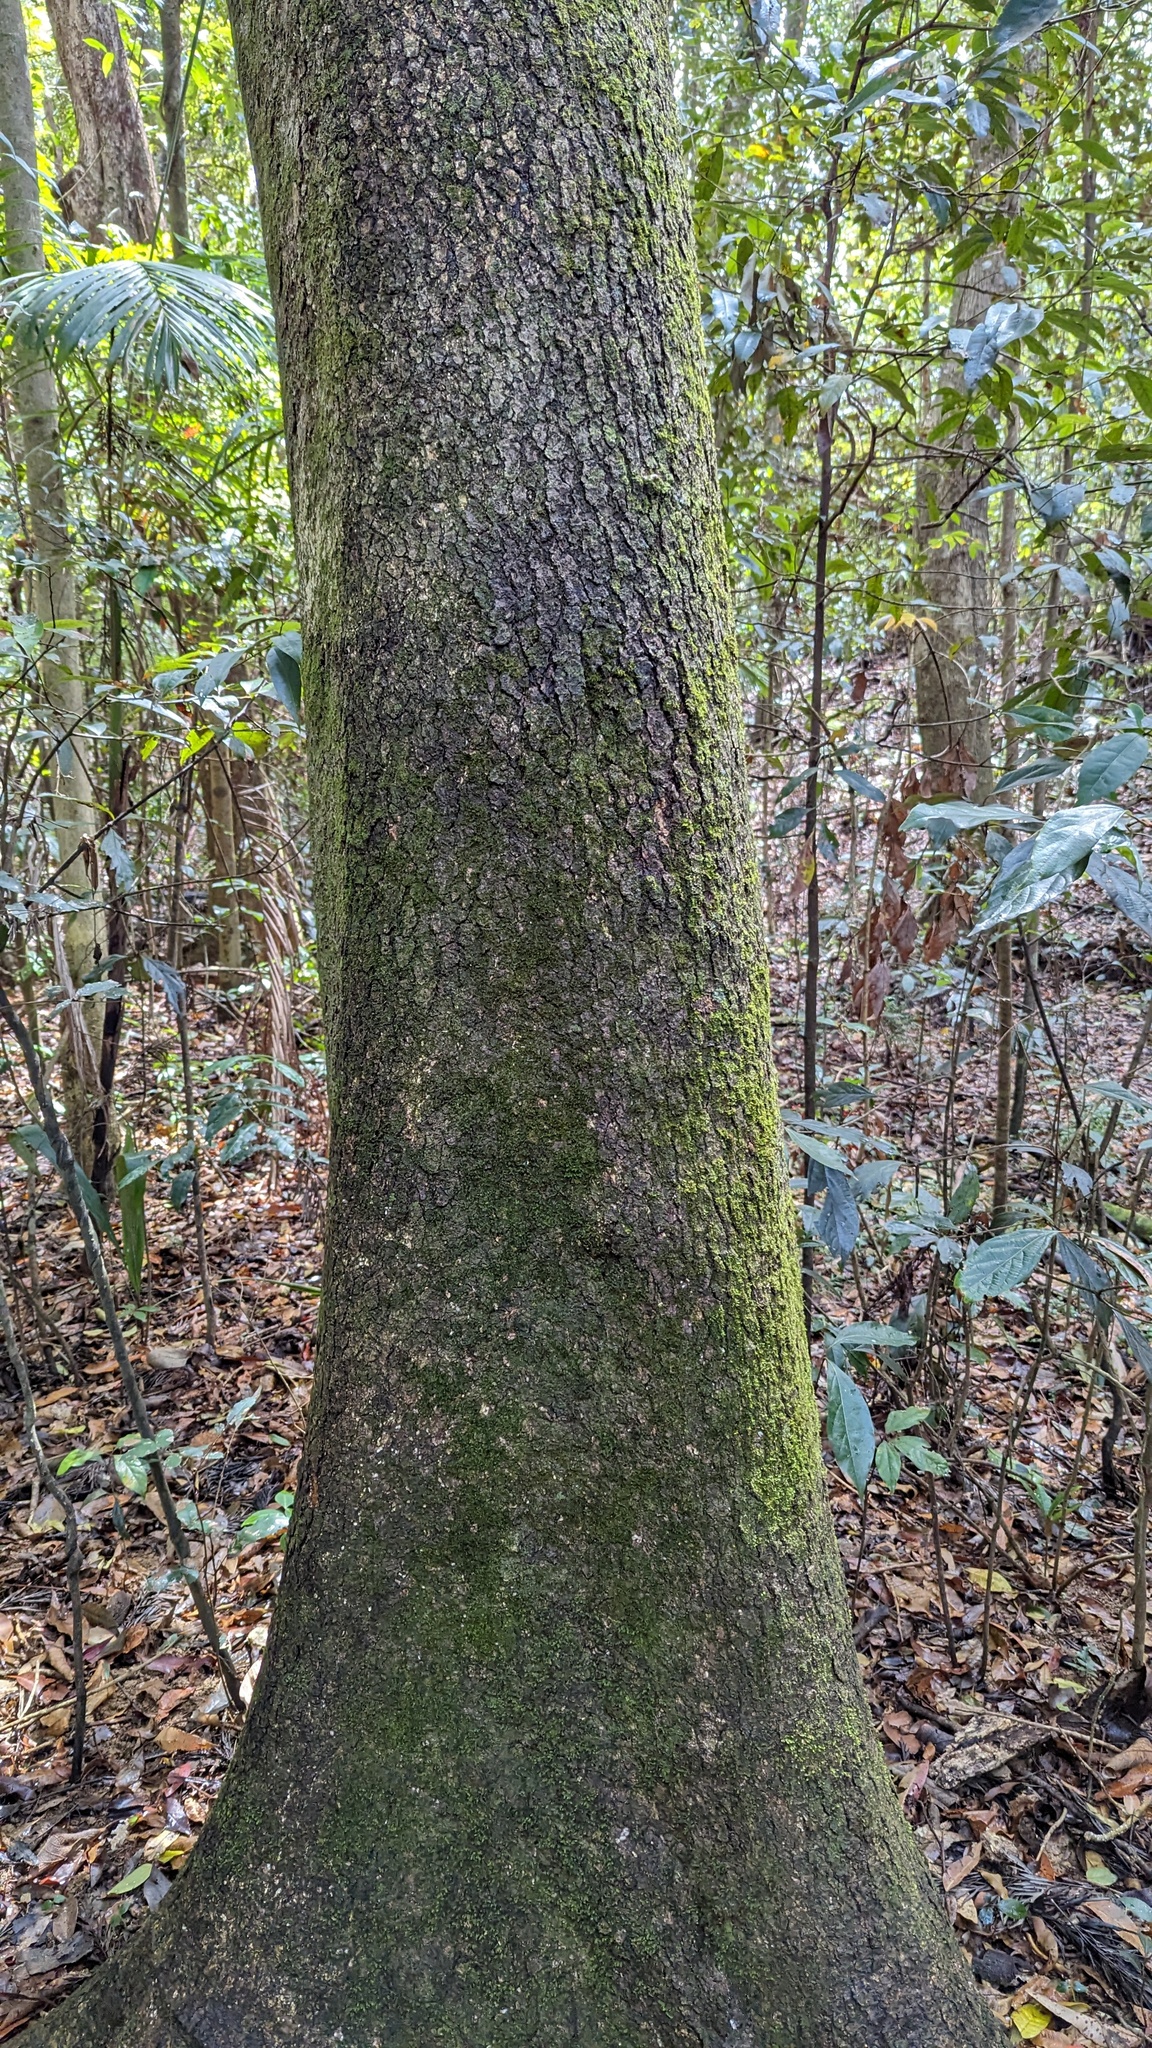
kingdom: Plantae
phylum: Tracheophyta
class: Magnoliopsida
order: Lamiales
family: Lamiaceae
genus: Gmelina
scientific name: Gmelina leichhardtii
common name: Queensland-beech
